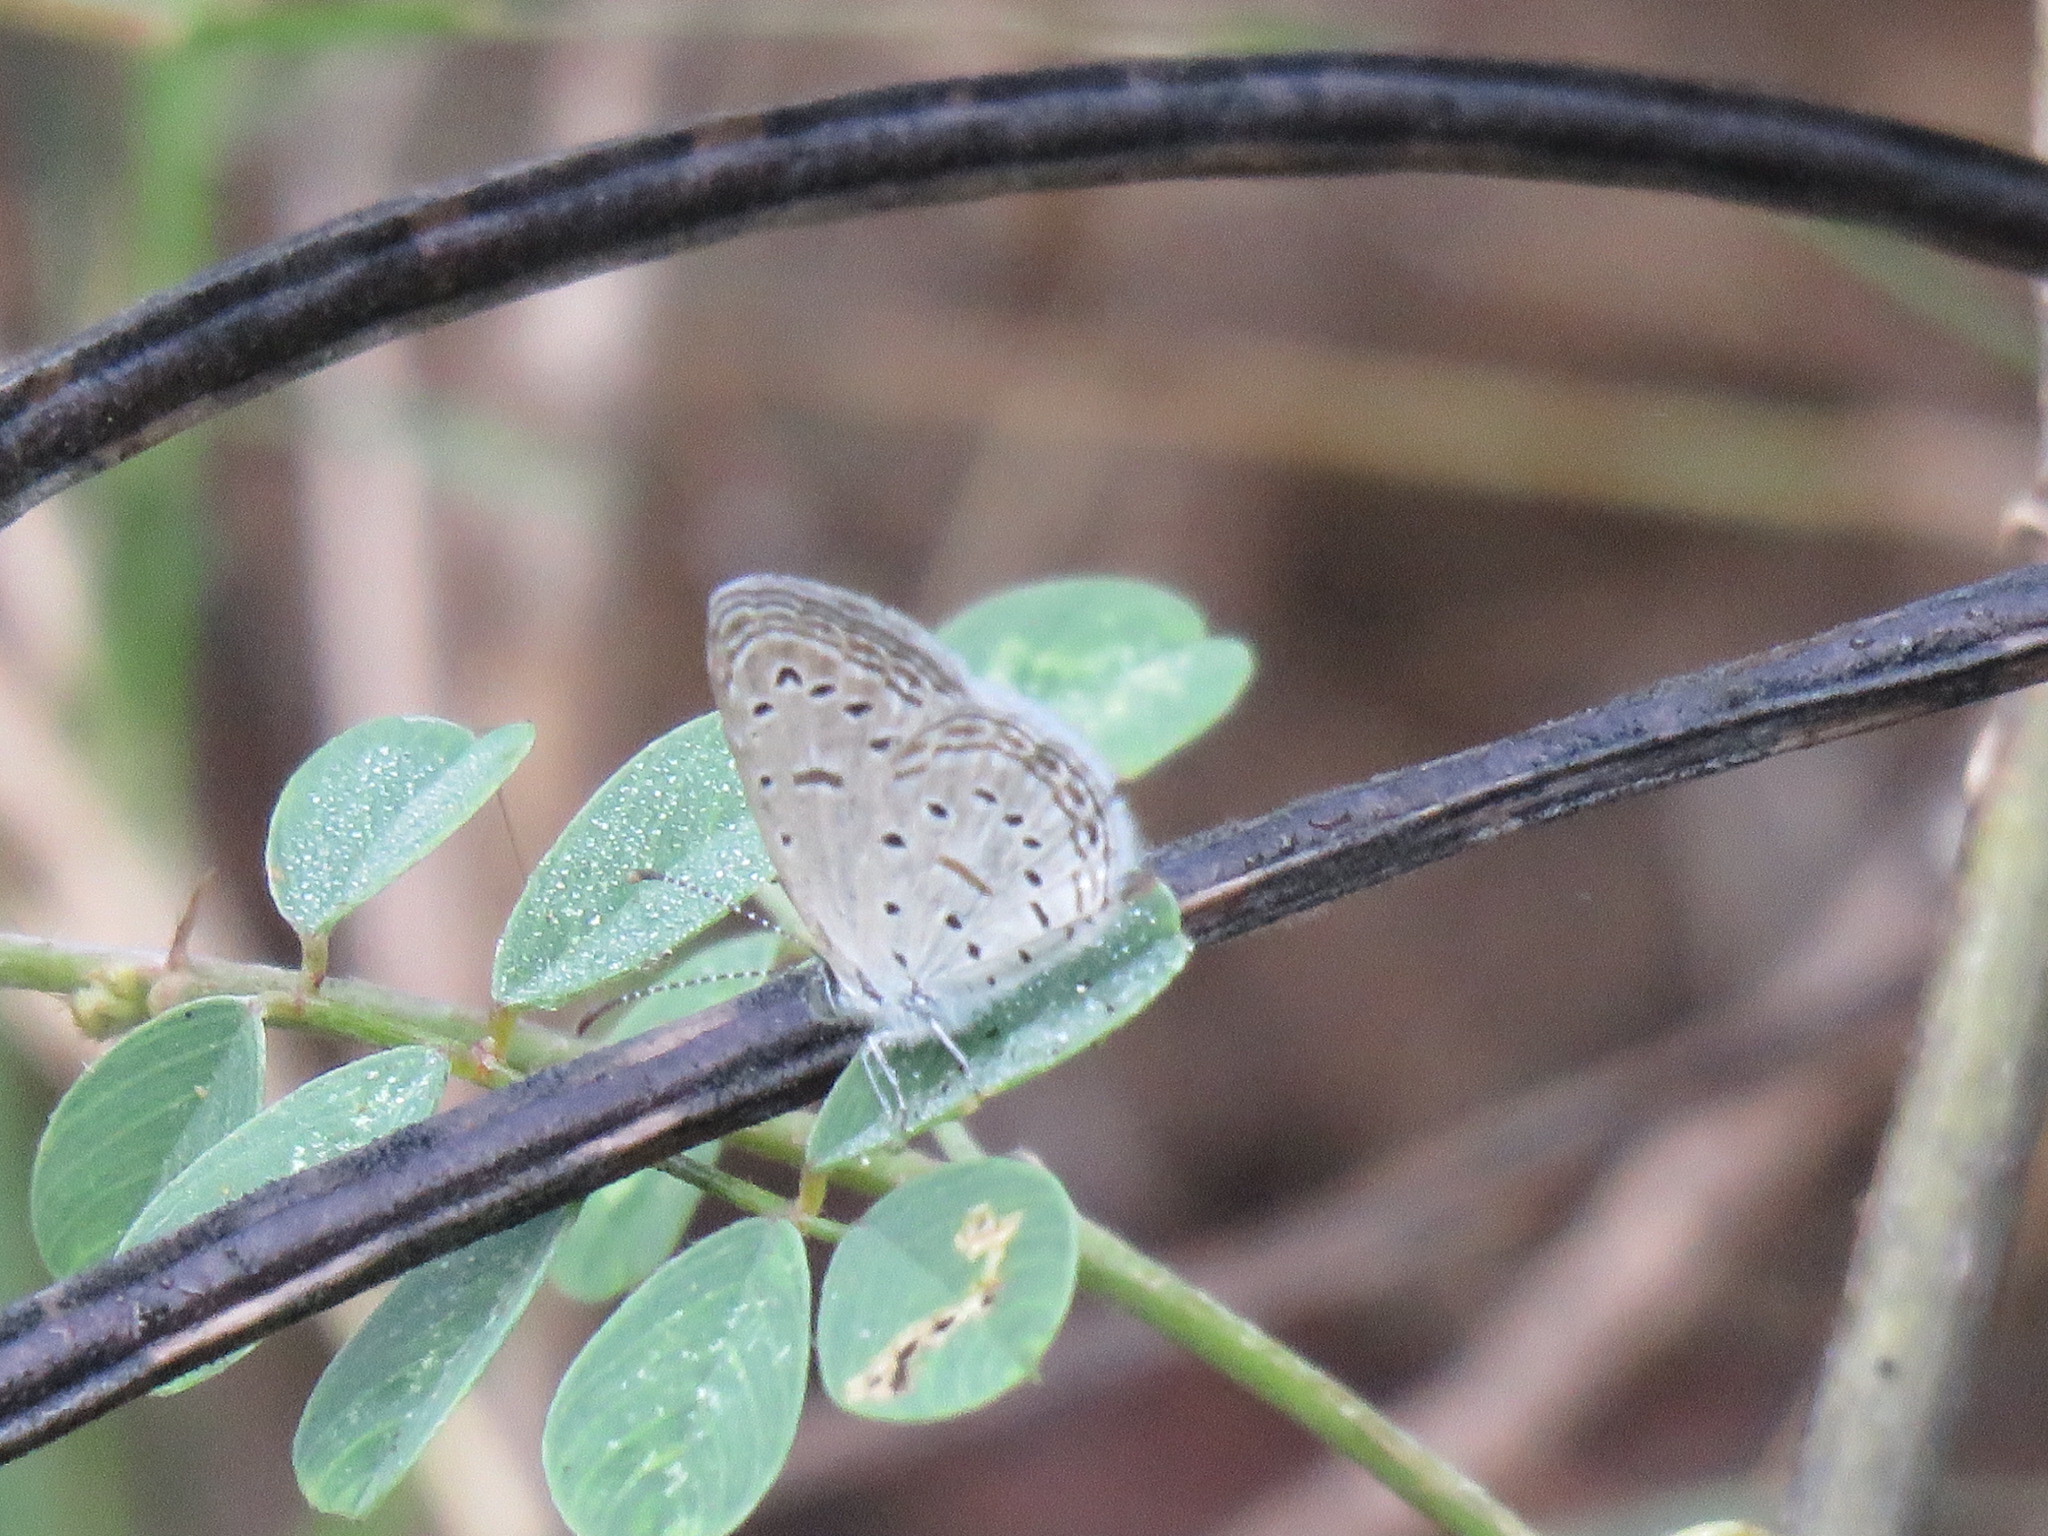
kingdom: Animalia
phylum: Arthropoda
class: Insecta
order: Lepidoptera
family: Lycaenidae
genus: Zizula
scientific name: Zizula hylax
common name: Gaika blue
